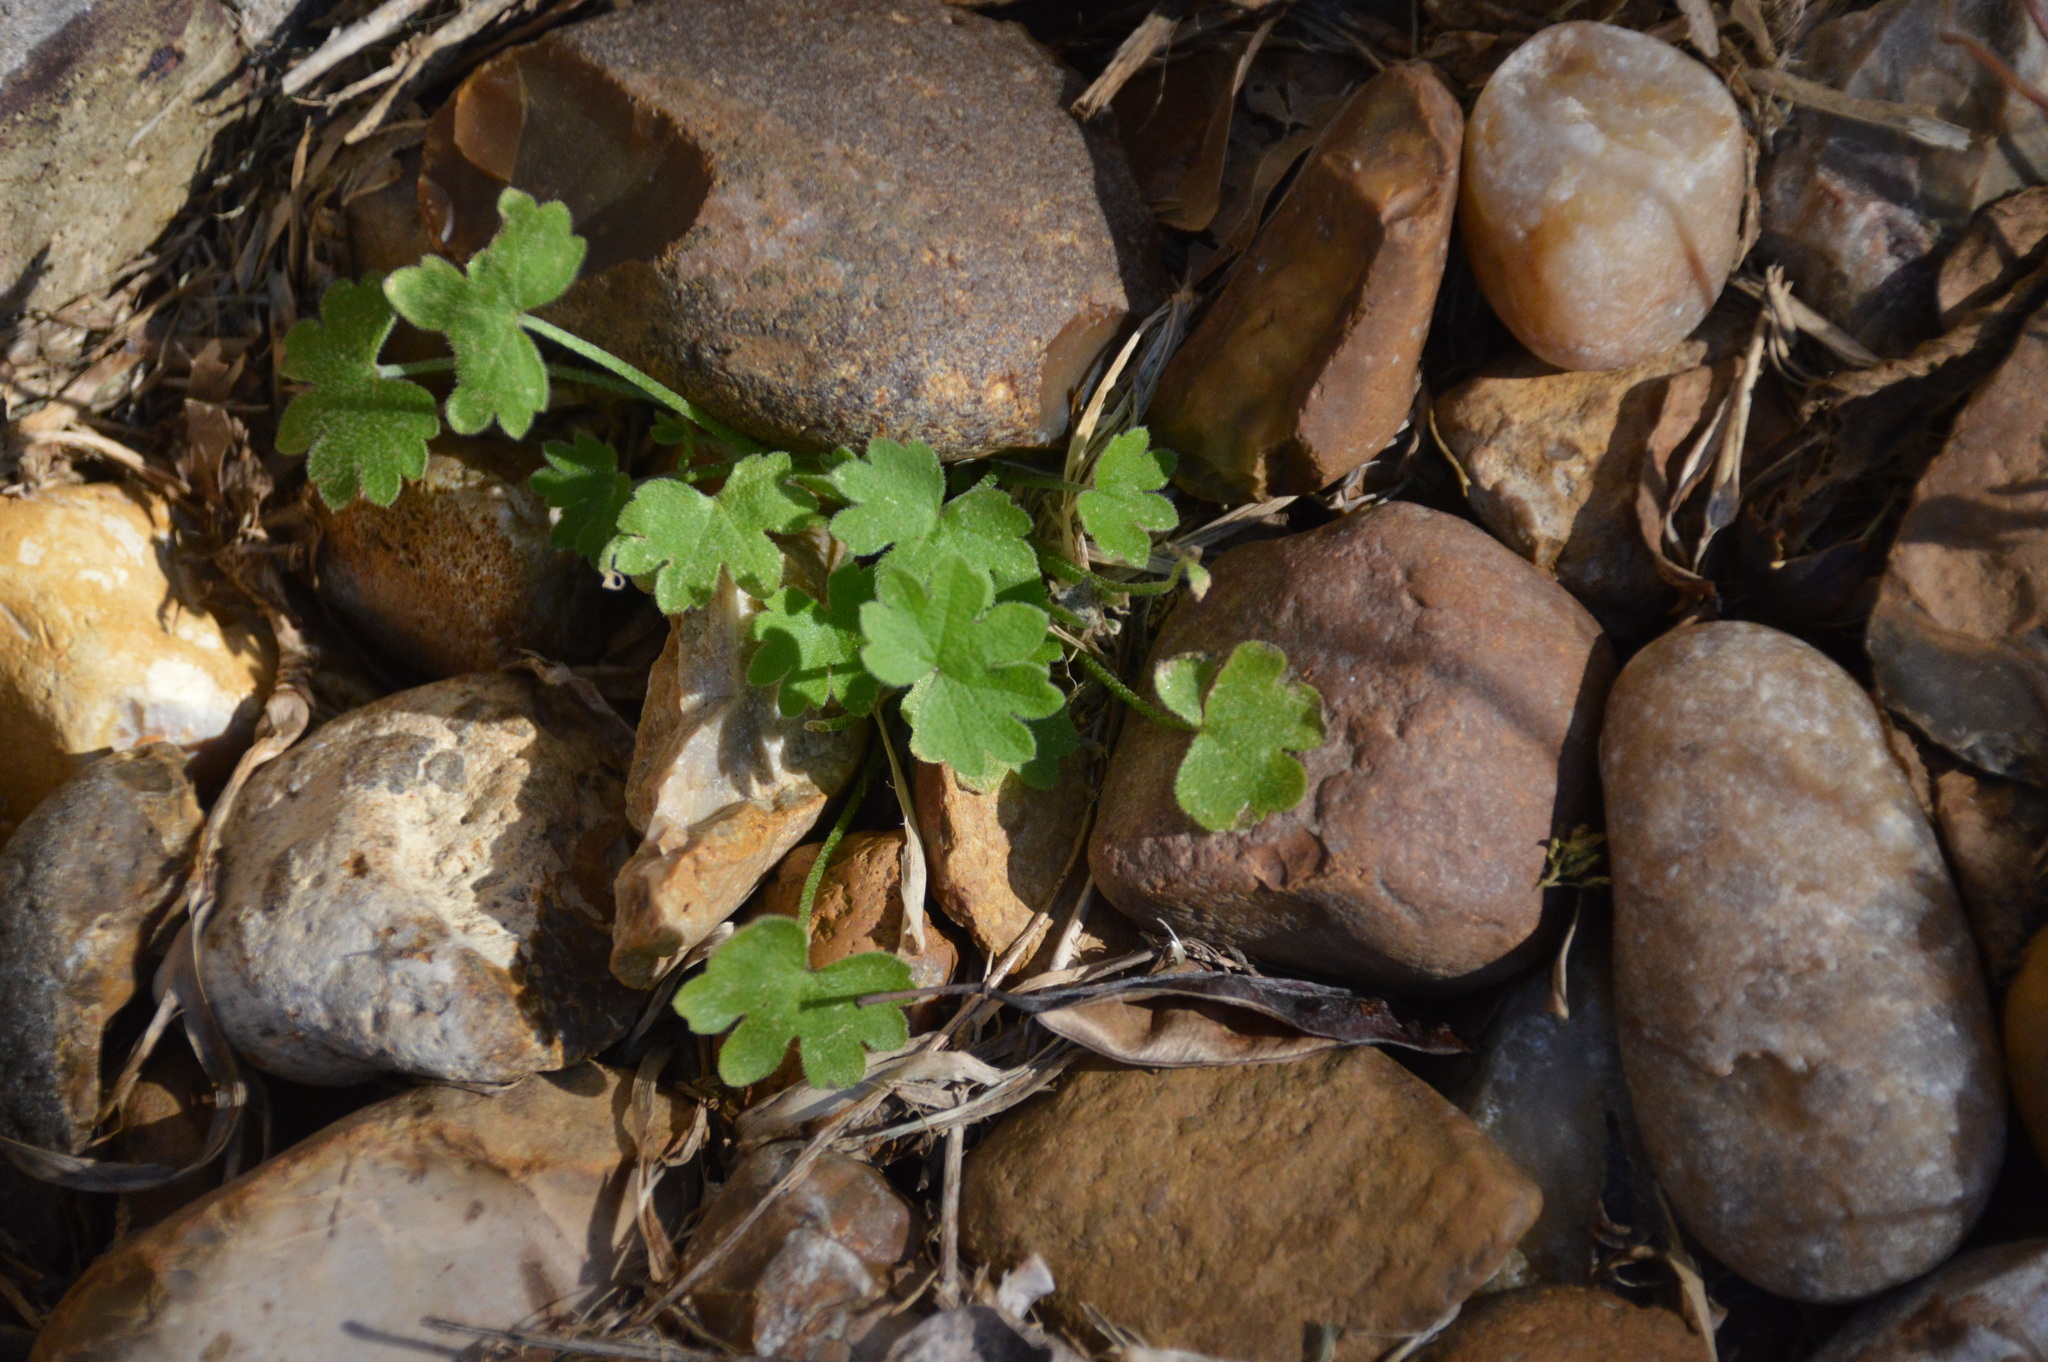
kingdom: Plantae
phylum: Tracheophyta
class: Magnoliopsida
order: Apiales
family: Apiaceae
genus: Bowlesia
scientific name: Bowlesia incana
